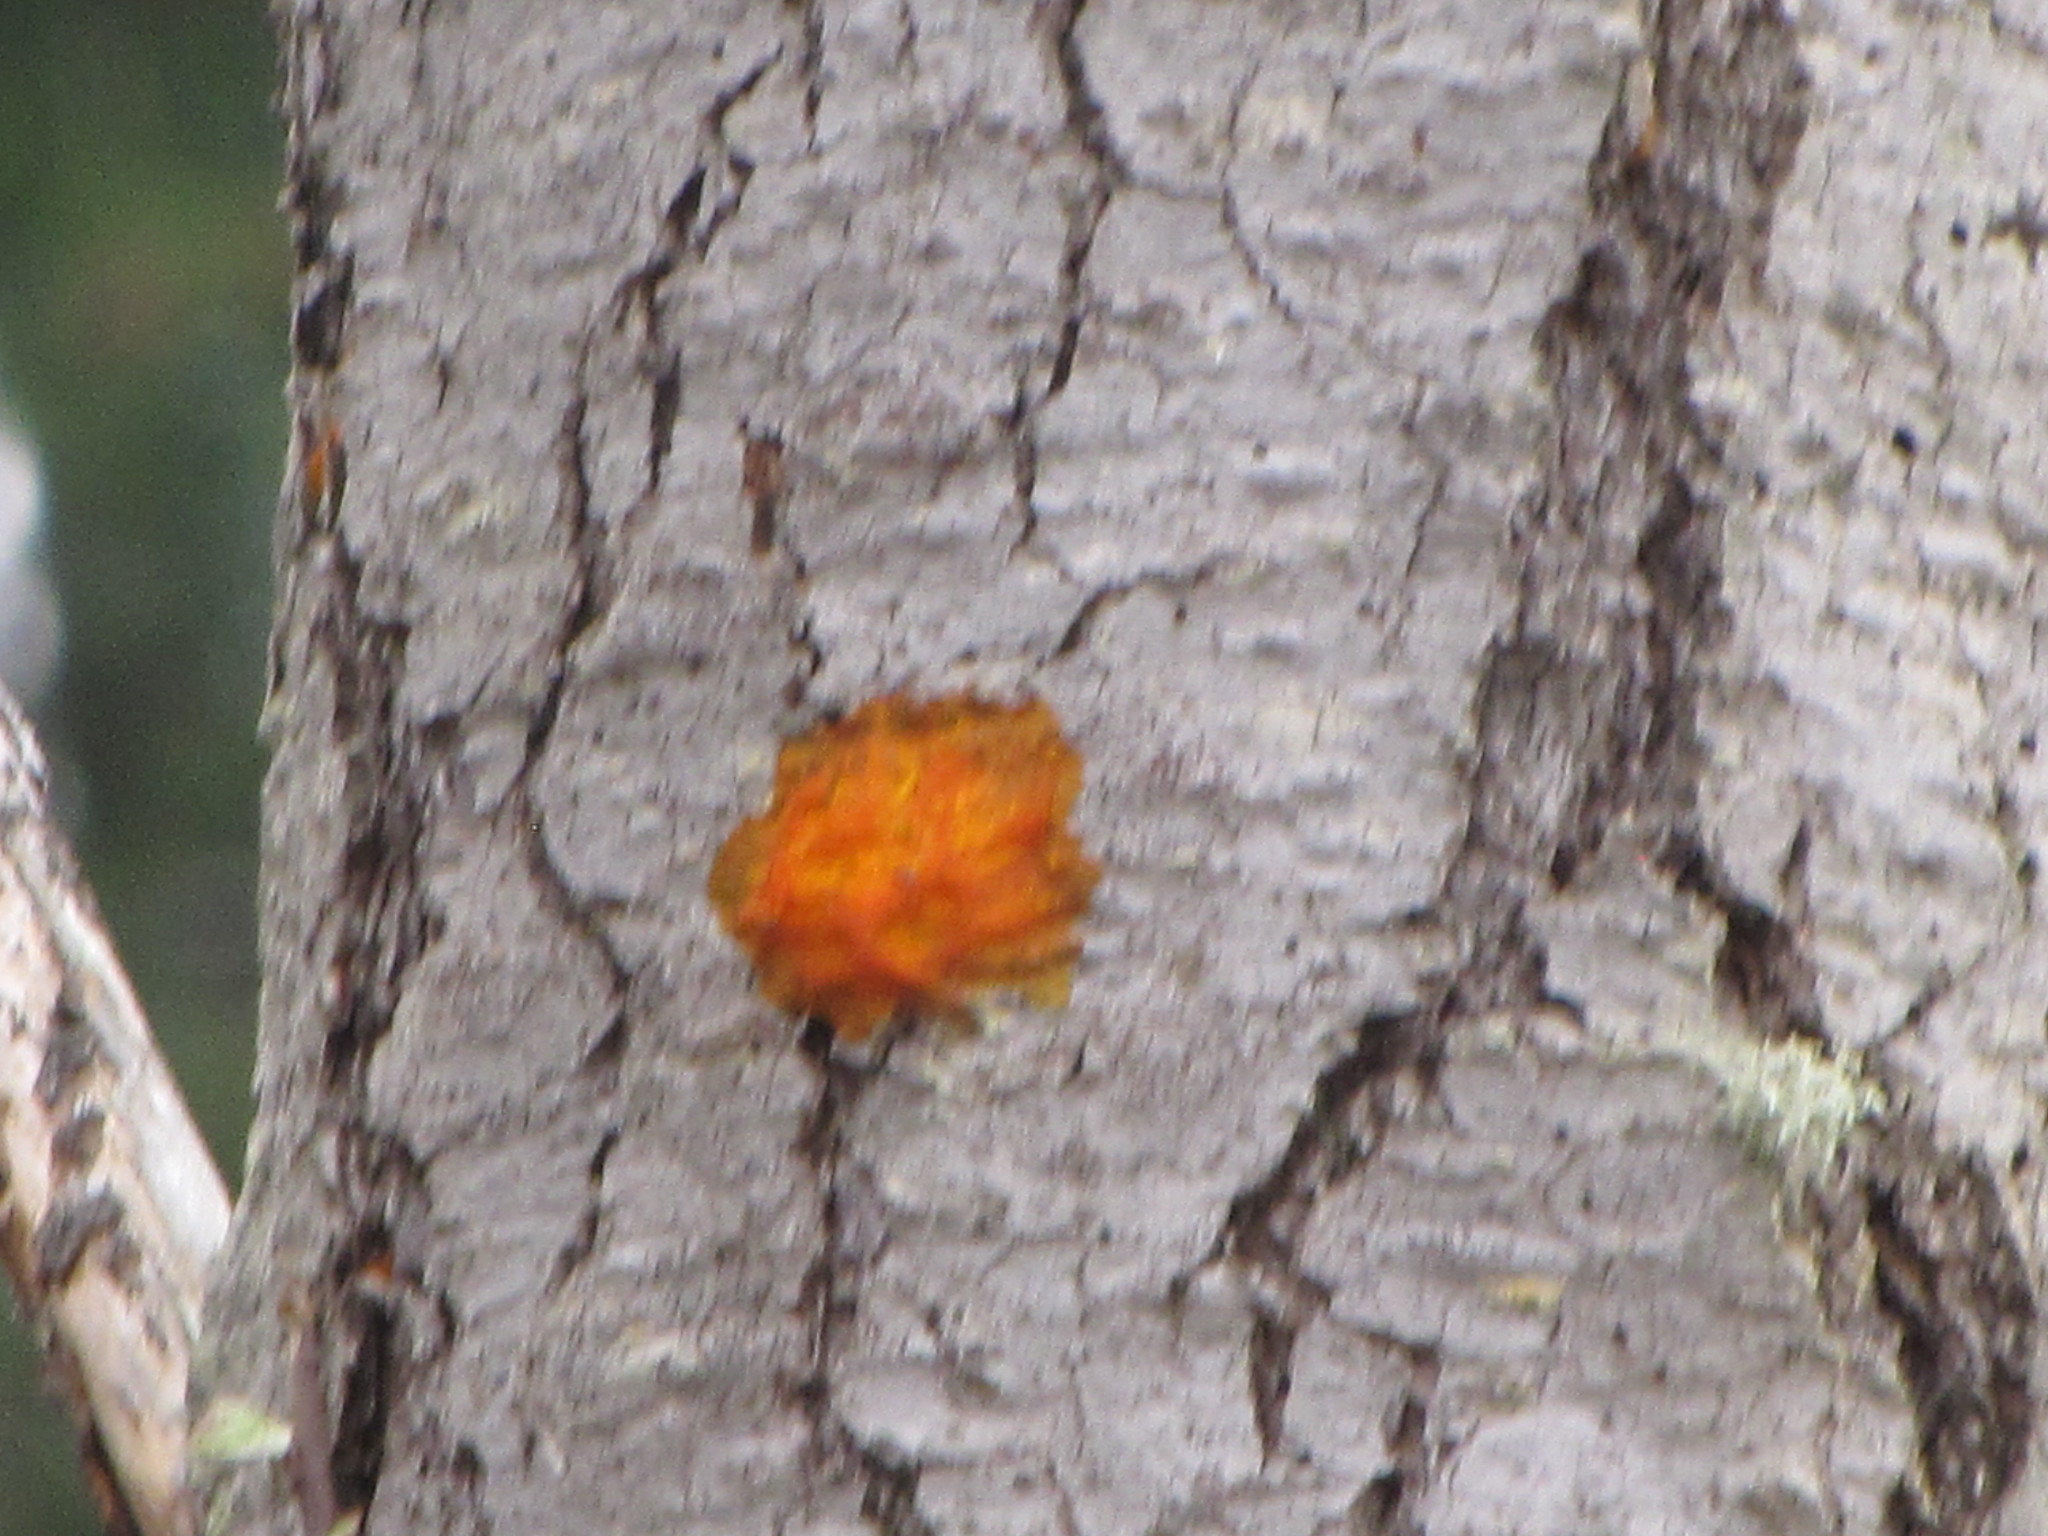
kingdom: Fungi
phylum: Basidiomycota
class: Dacrymycetes
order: Dacrymycetales
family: Dacrymycetaceae
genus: Dacrymyces
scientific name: Dacrymyces chrysospermus
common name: Orange jelly spot
